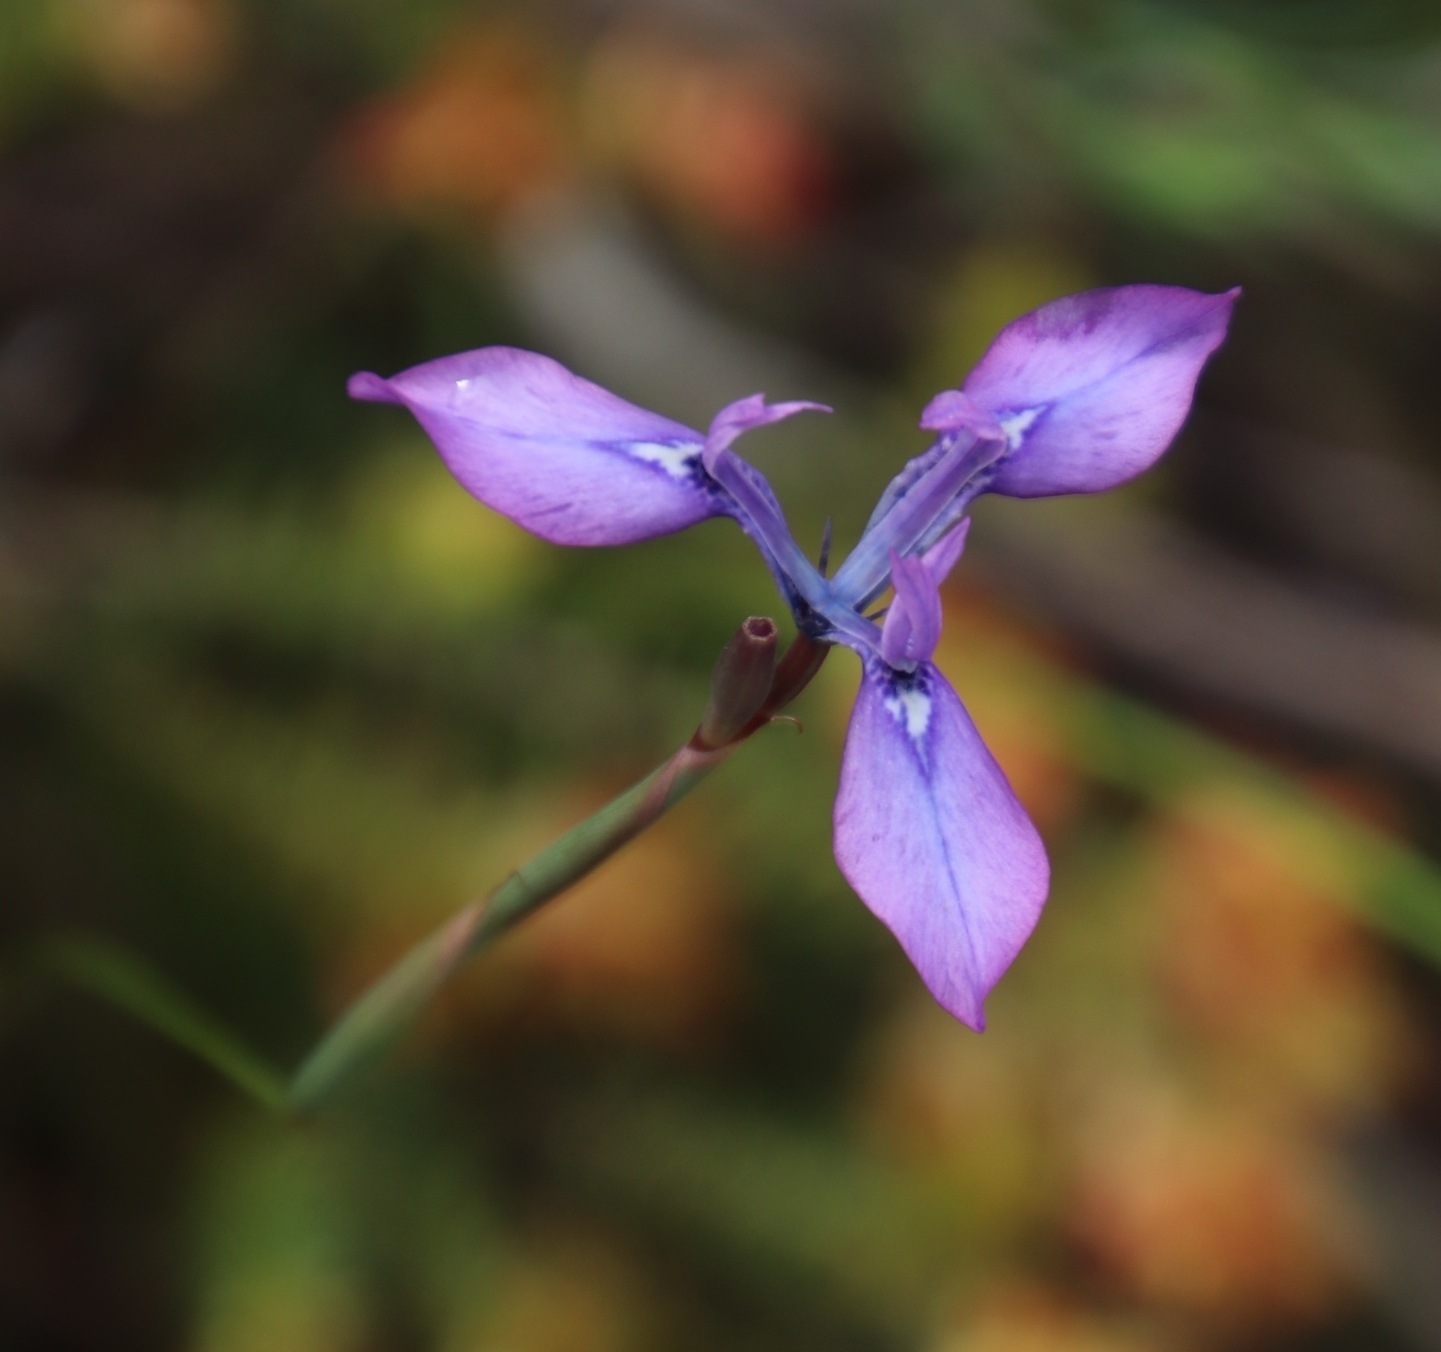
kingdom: Plantae
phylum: Tracheophyta
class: Liliopsida
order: Asparagales
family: Iridaceae
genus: Moraea
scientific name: Moraea tripetala
